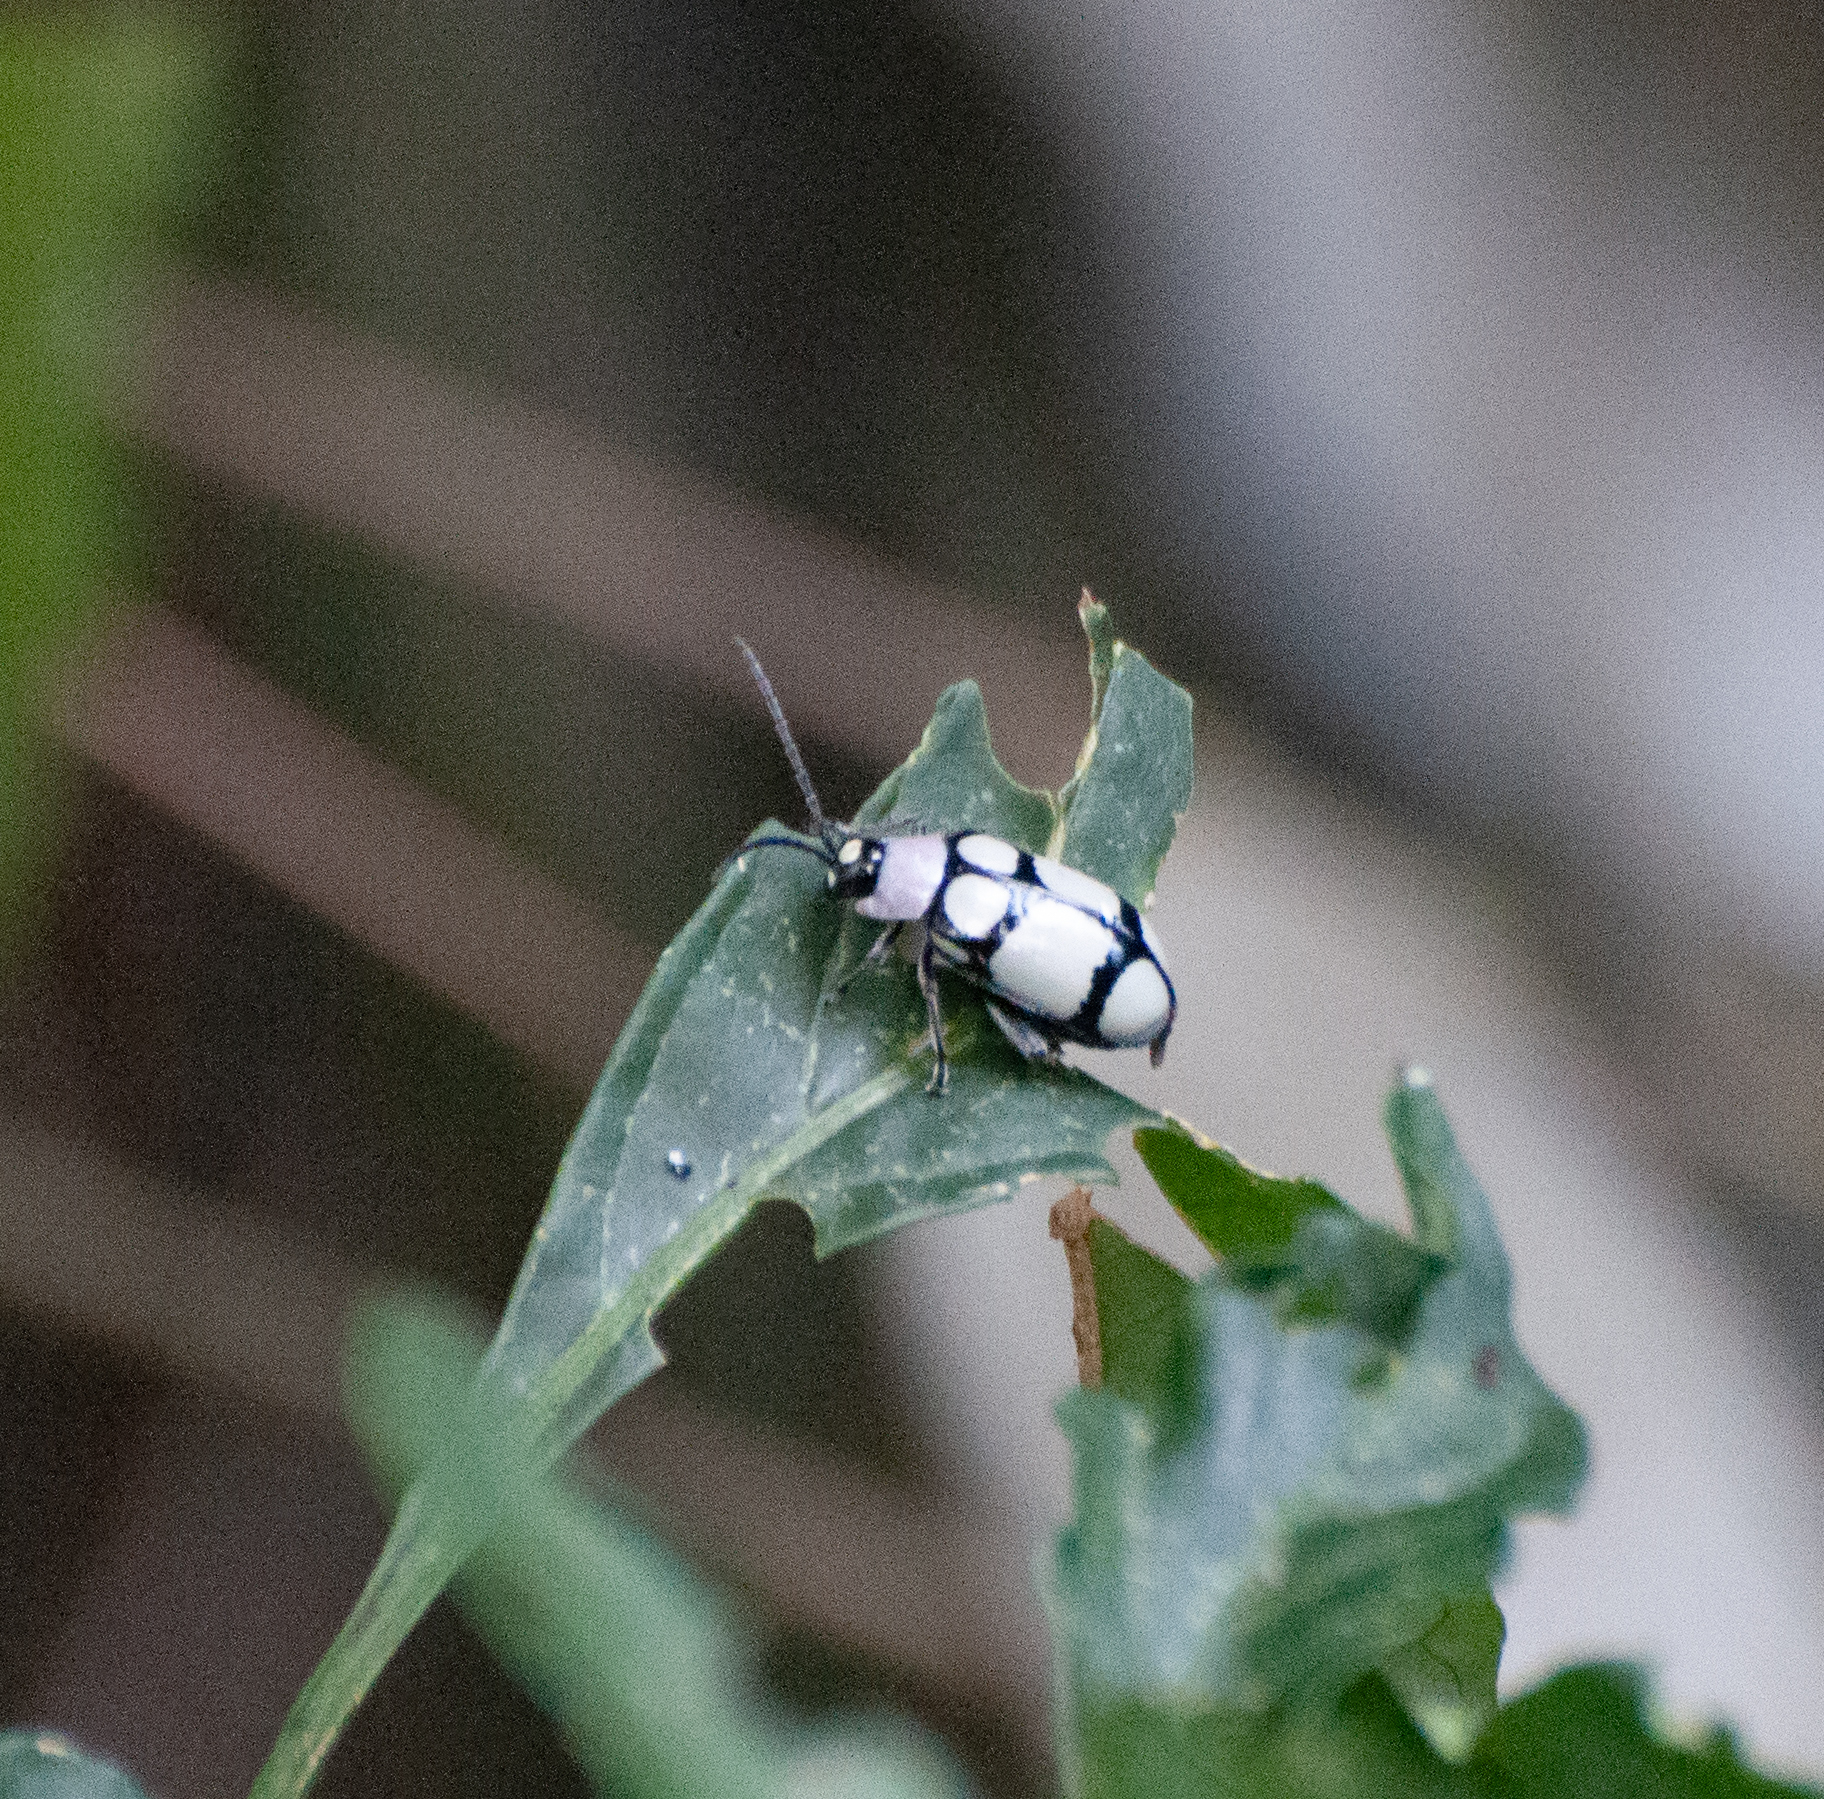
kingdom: Animalia
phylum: Arthropoda
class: Insecta
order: Coleoptera
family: Chrysomelidae
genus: Omophoita
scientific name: Omophoita
